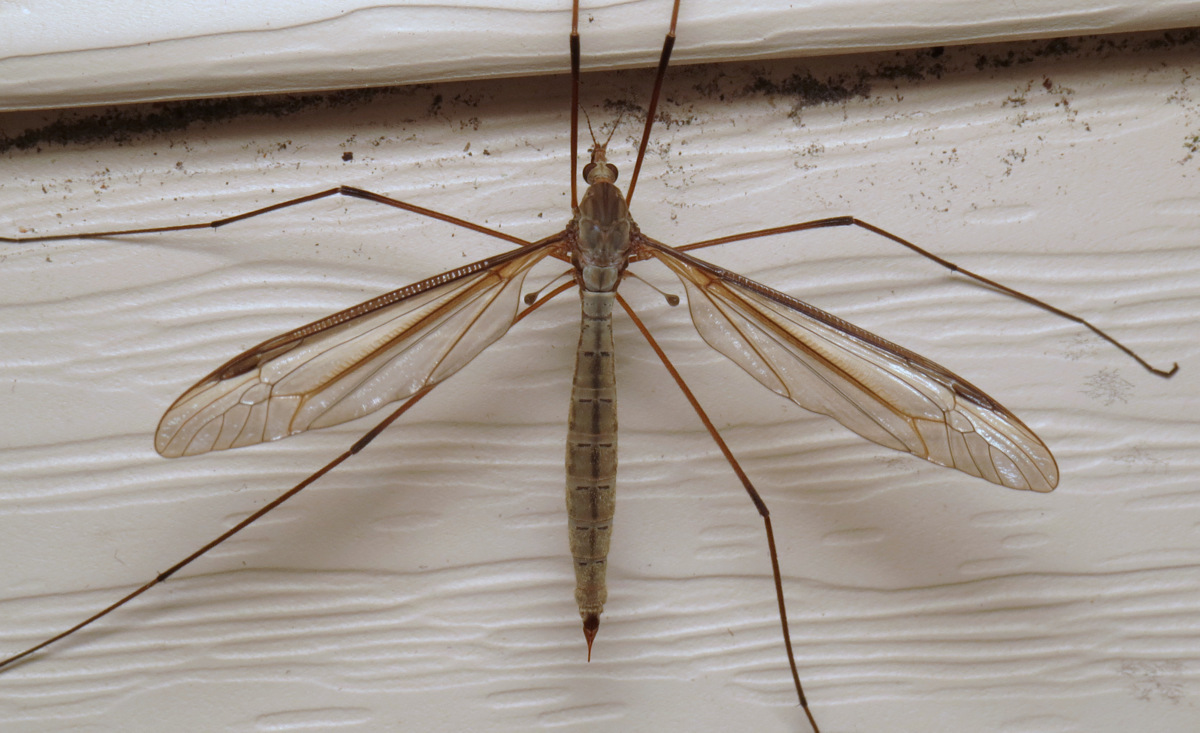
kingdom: Animalia
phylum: Arthropoda
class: Insecta
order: Diptera
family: Tipulidae
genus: Tipula
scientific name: Tipula oleracea
